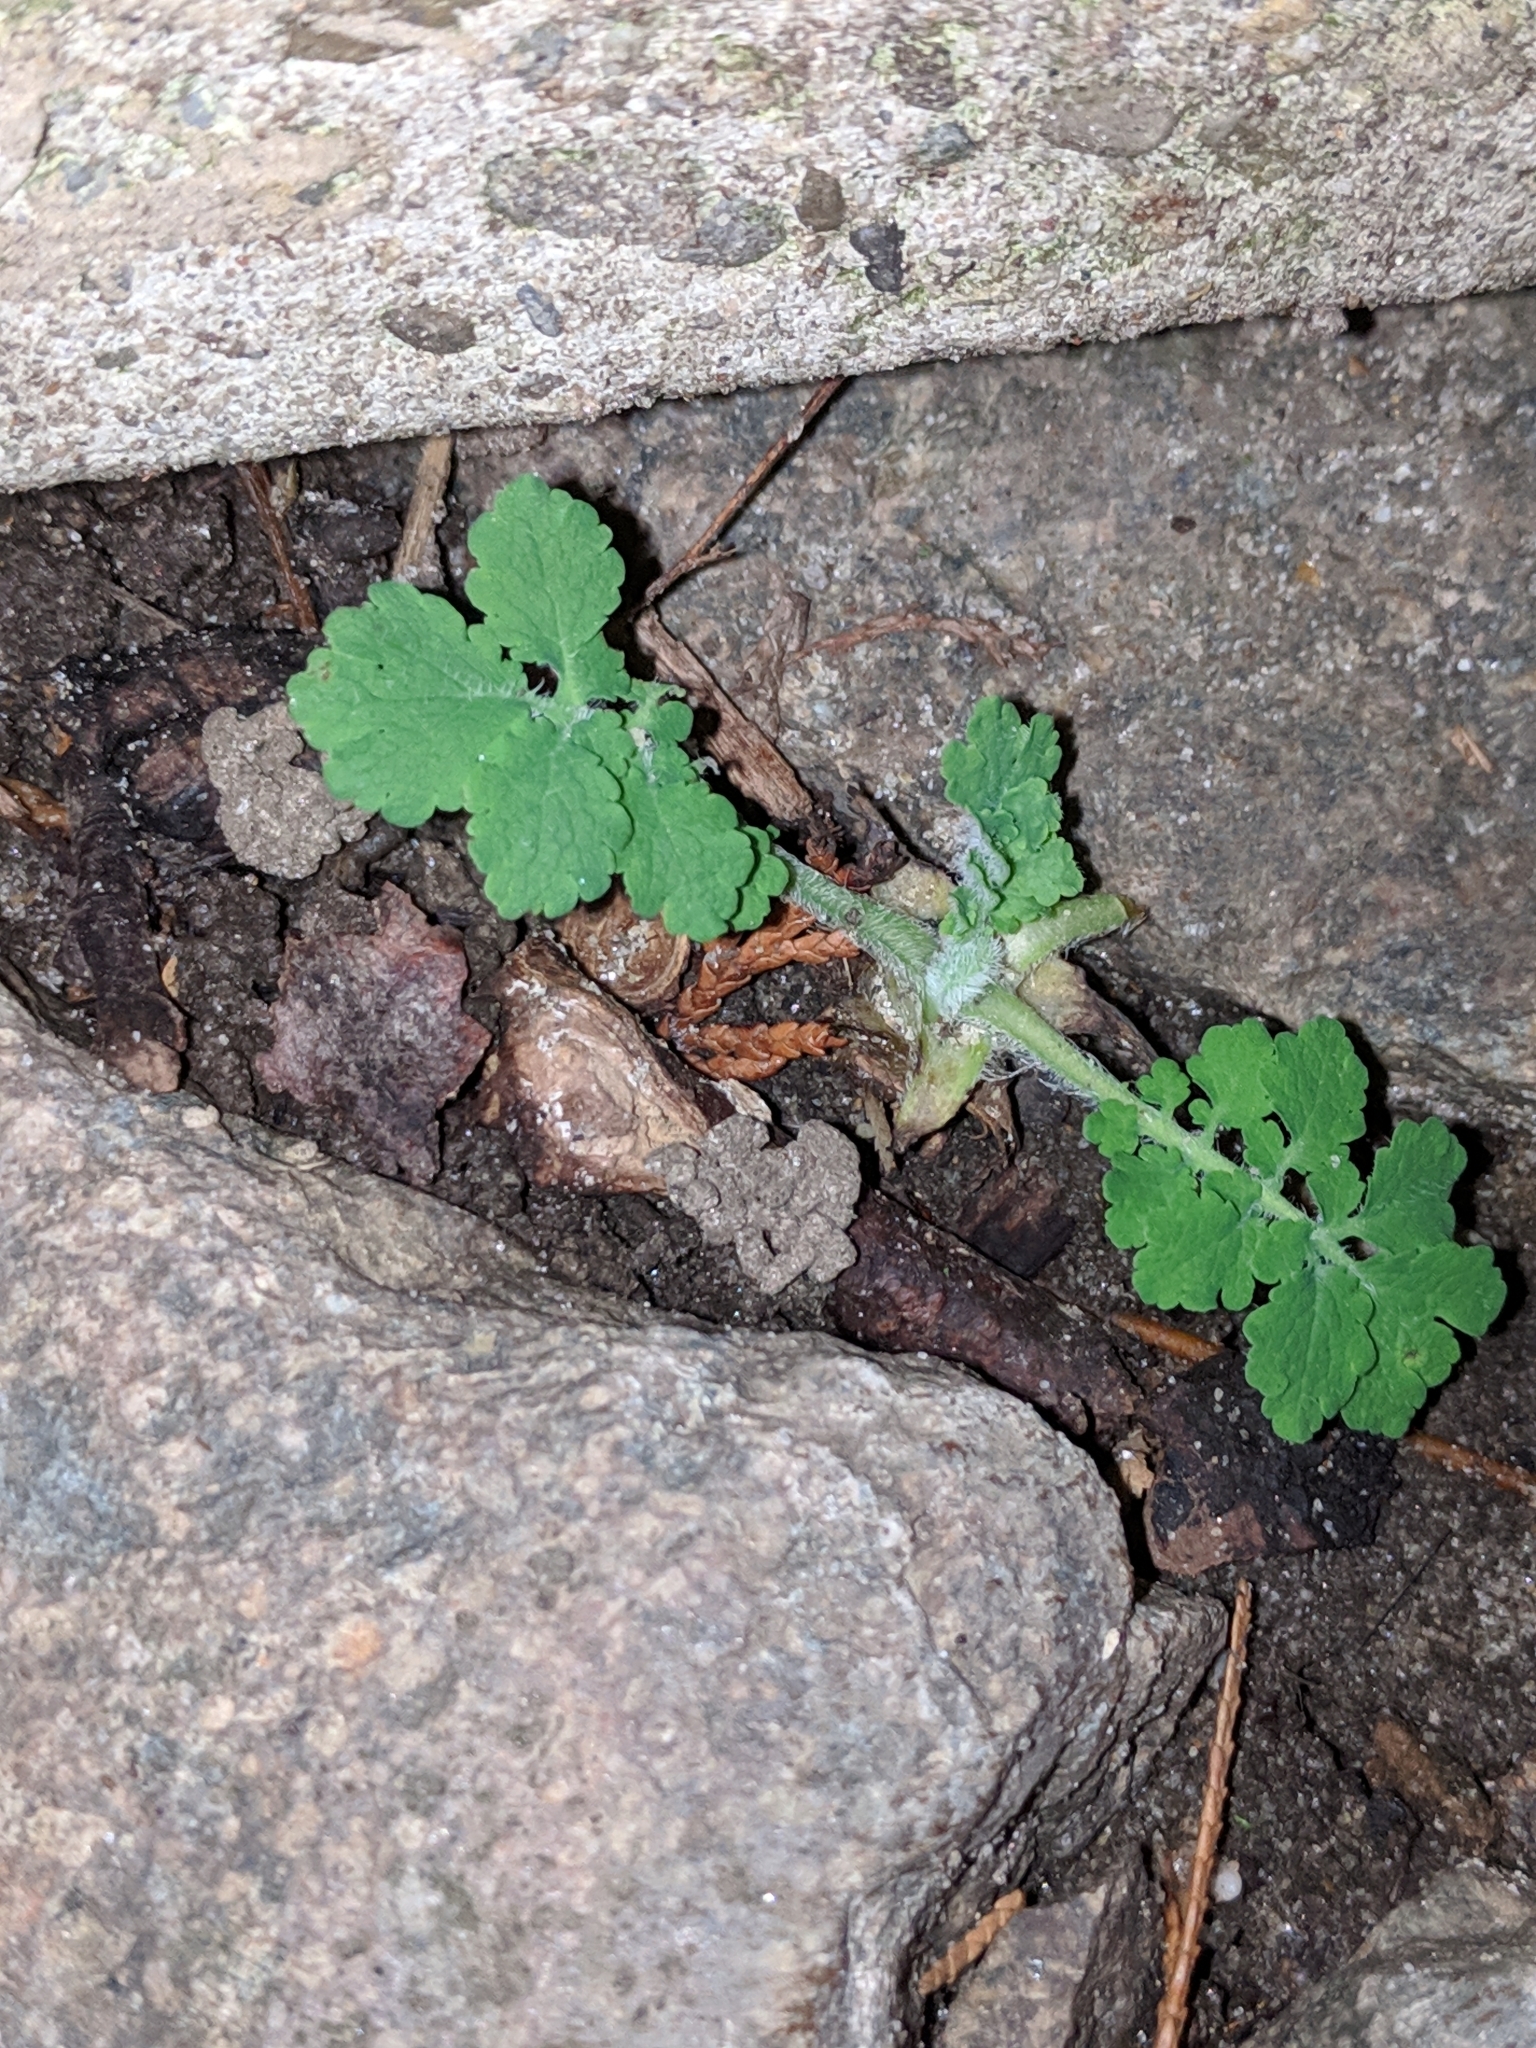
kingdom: Plantae
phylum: Tracheophyta
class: Magnoliopsida
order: Ranunculales
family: Papaveraceae
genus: Chelidonium
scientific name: Chelidonium majus
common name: Greater celandine
